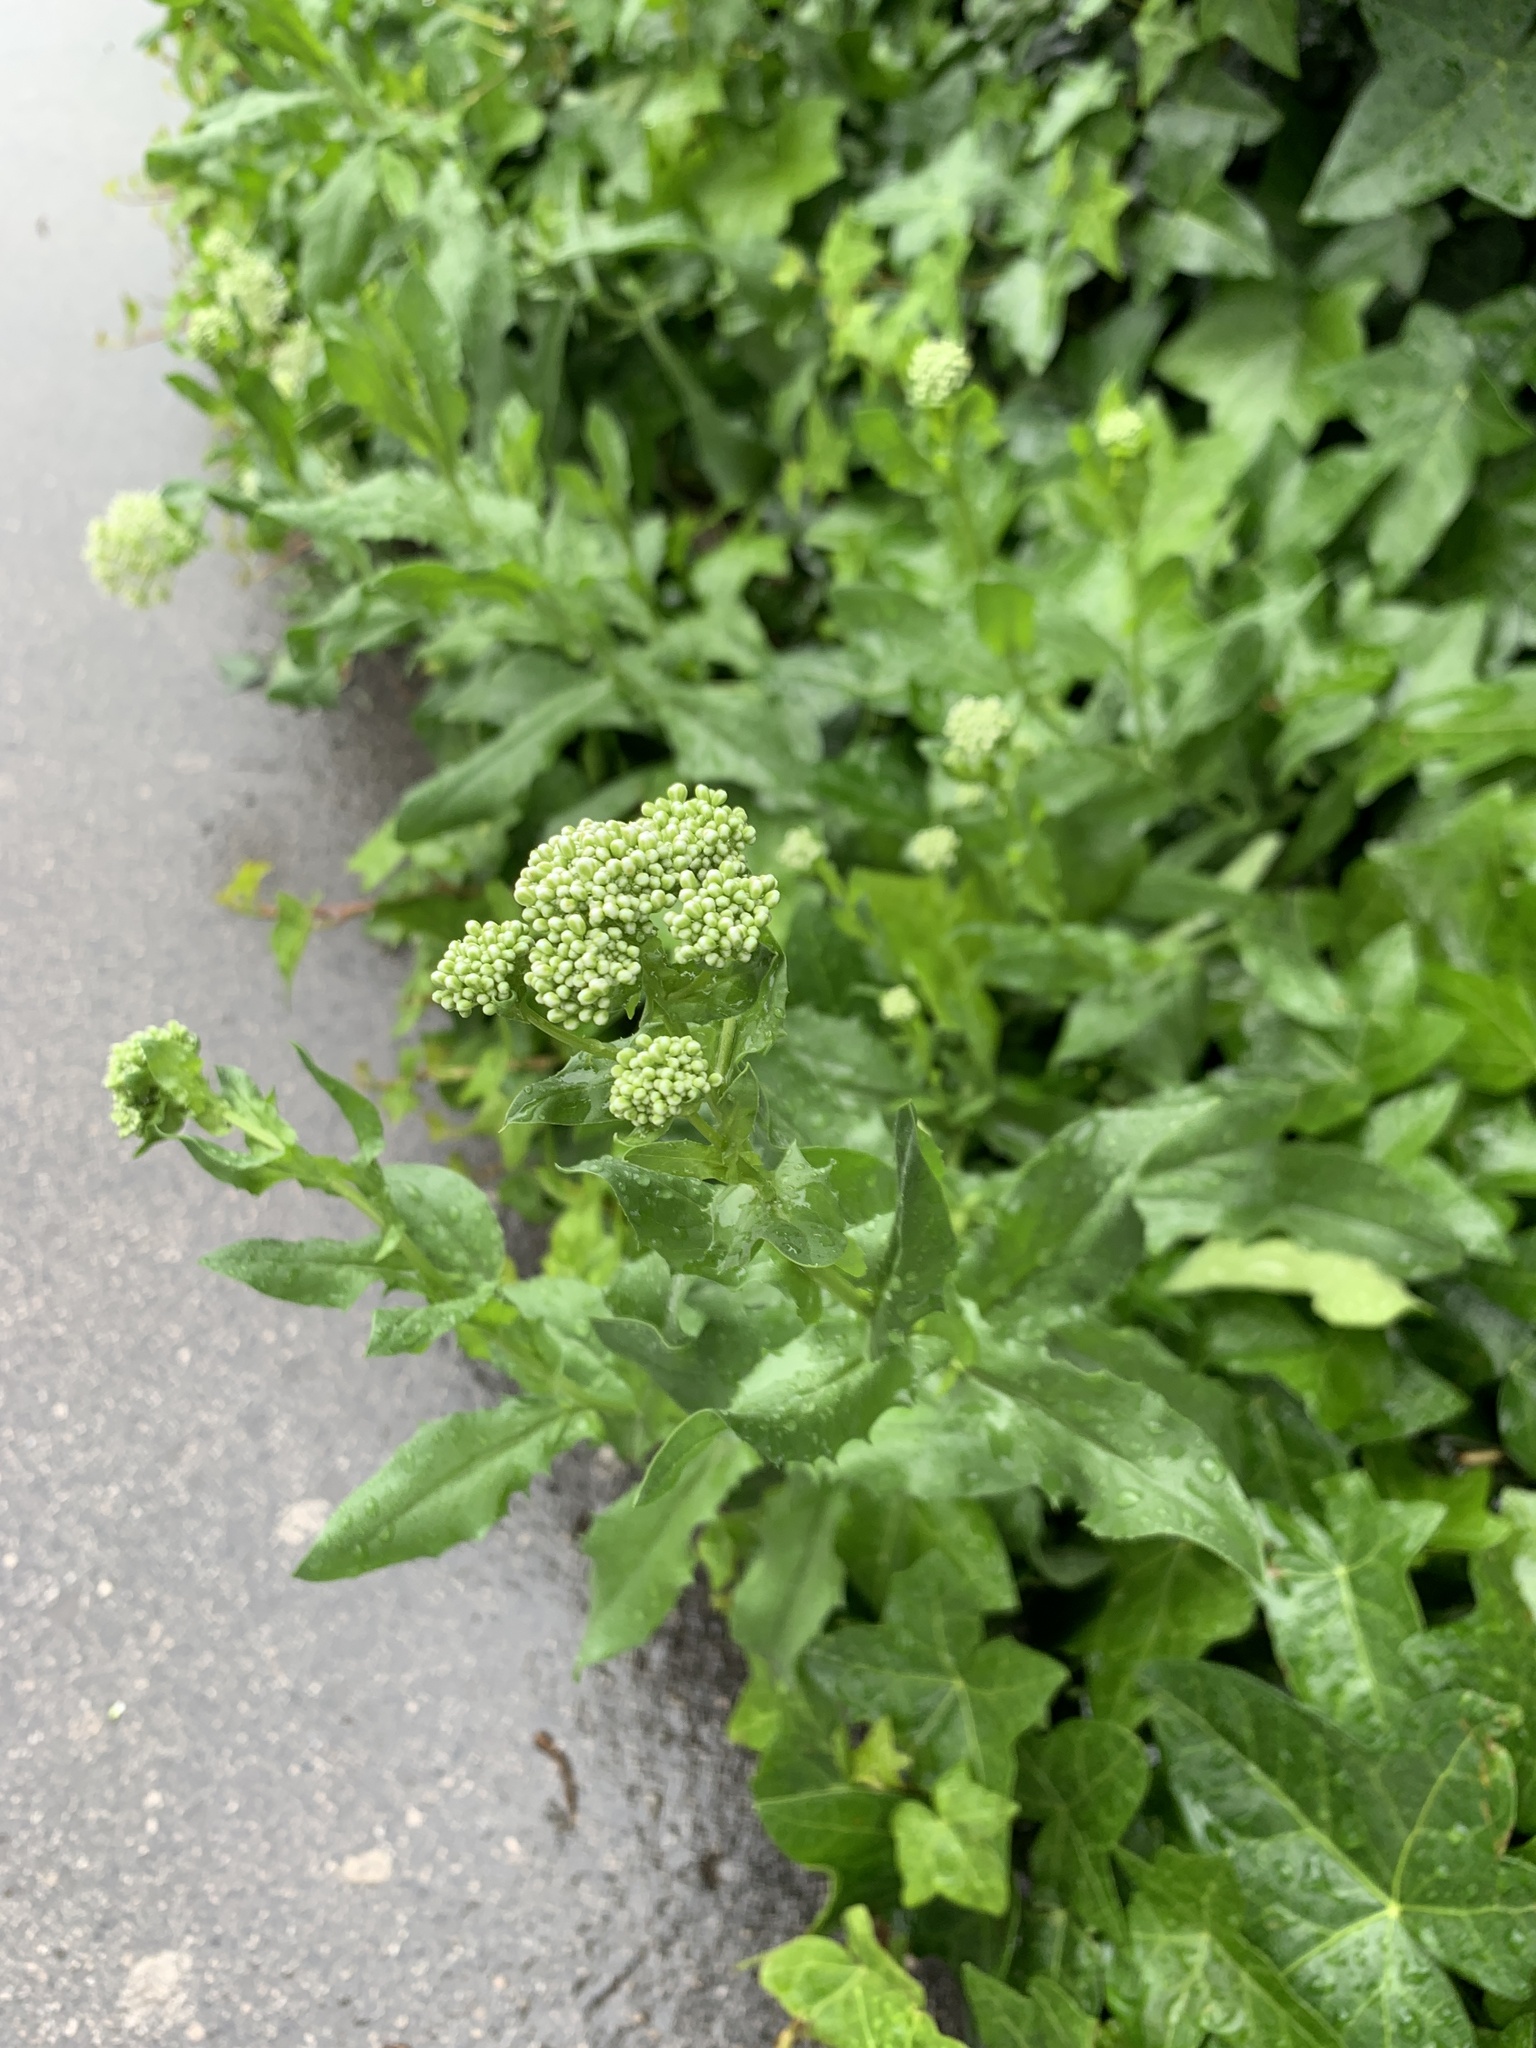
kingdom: Plantae
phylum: Tracheophyta
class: Magnoliopsida
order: Brassicales
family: Brassicaceae
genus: Lepidium
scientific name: Lepidium draba
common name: Hoary cress
